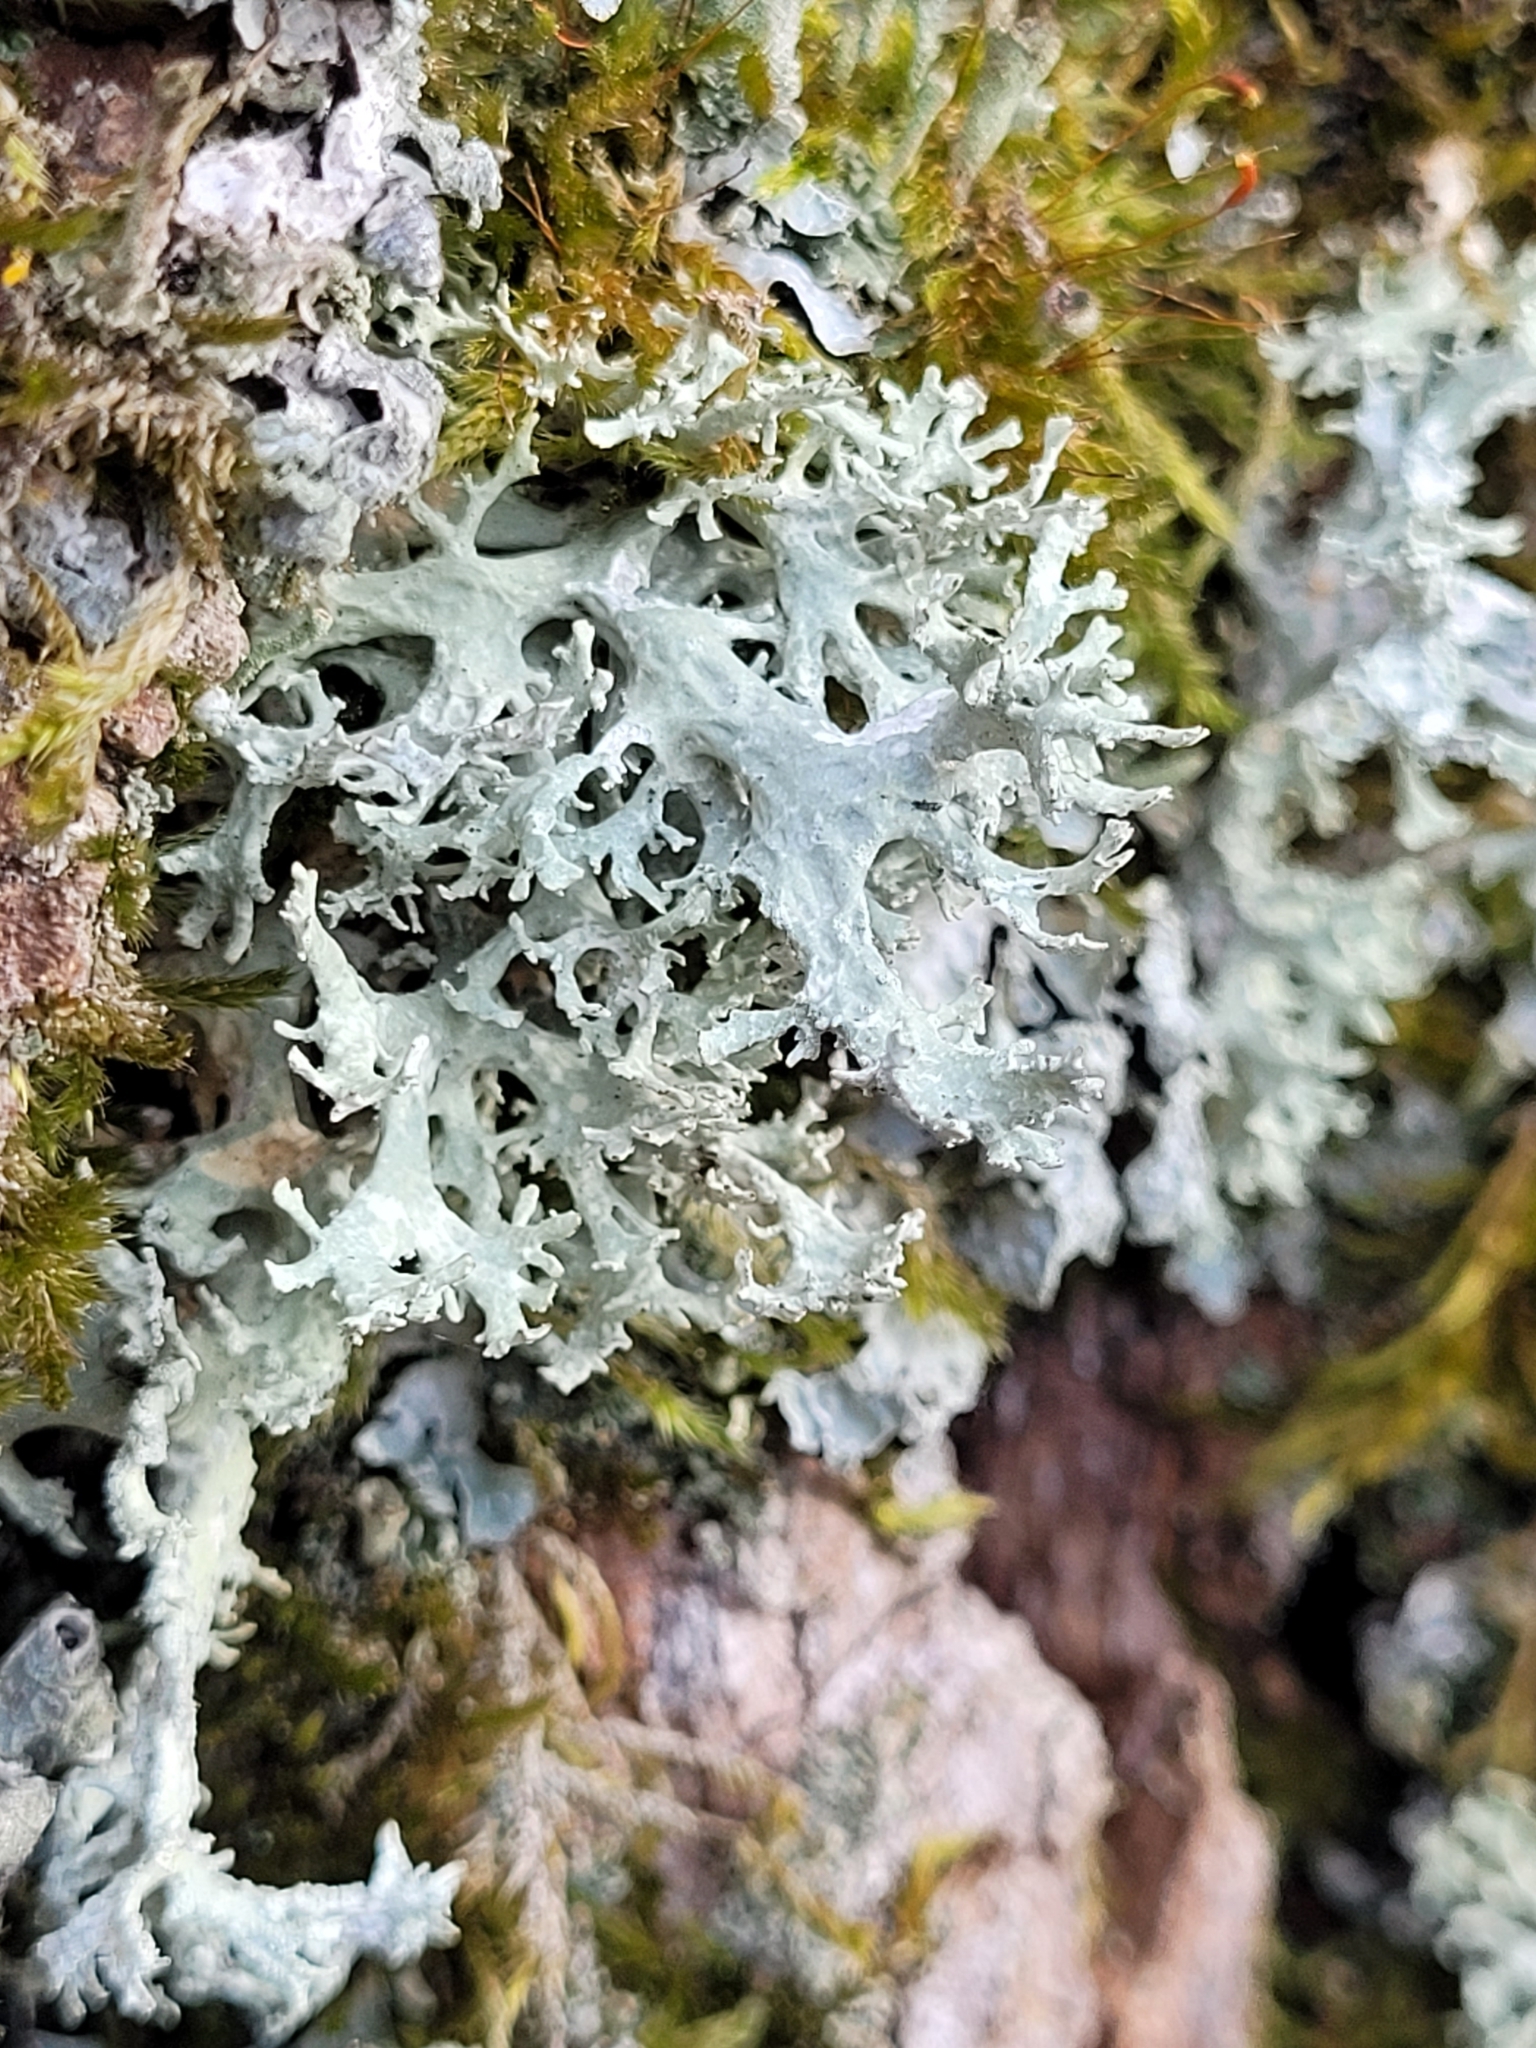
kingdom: Fungi
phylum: Ascomycota
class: Lecanoromycetes
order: Lecanorales
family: Parmeliaceae
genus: Evernia
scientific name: Evernia prunastri
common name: Oak moss
